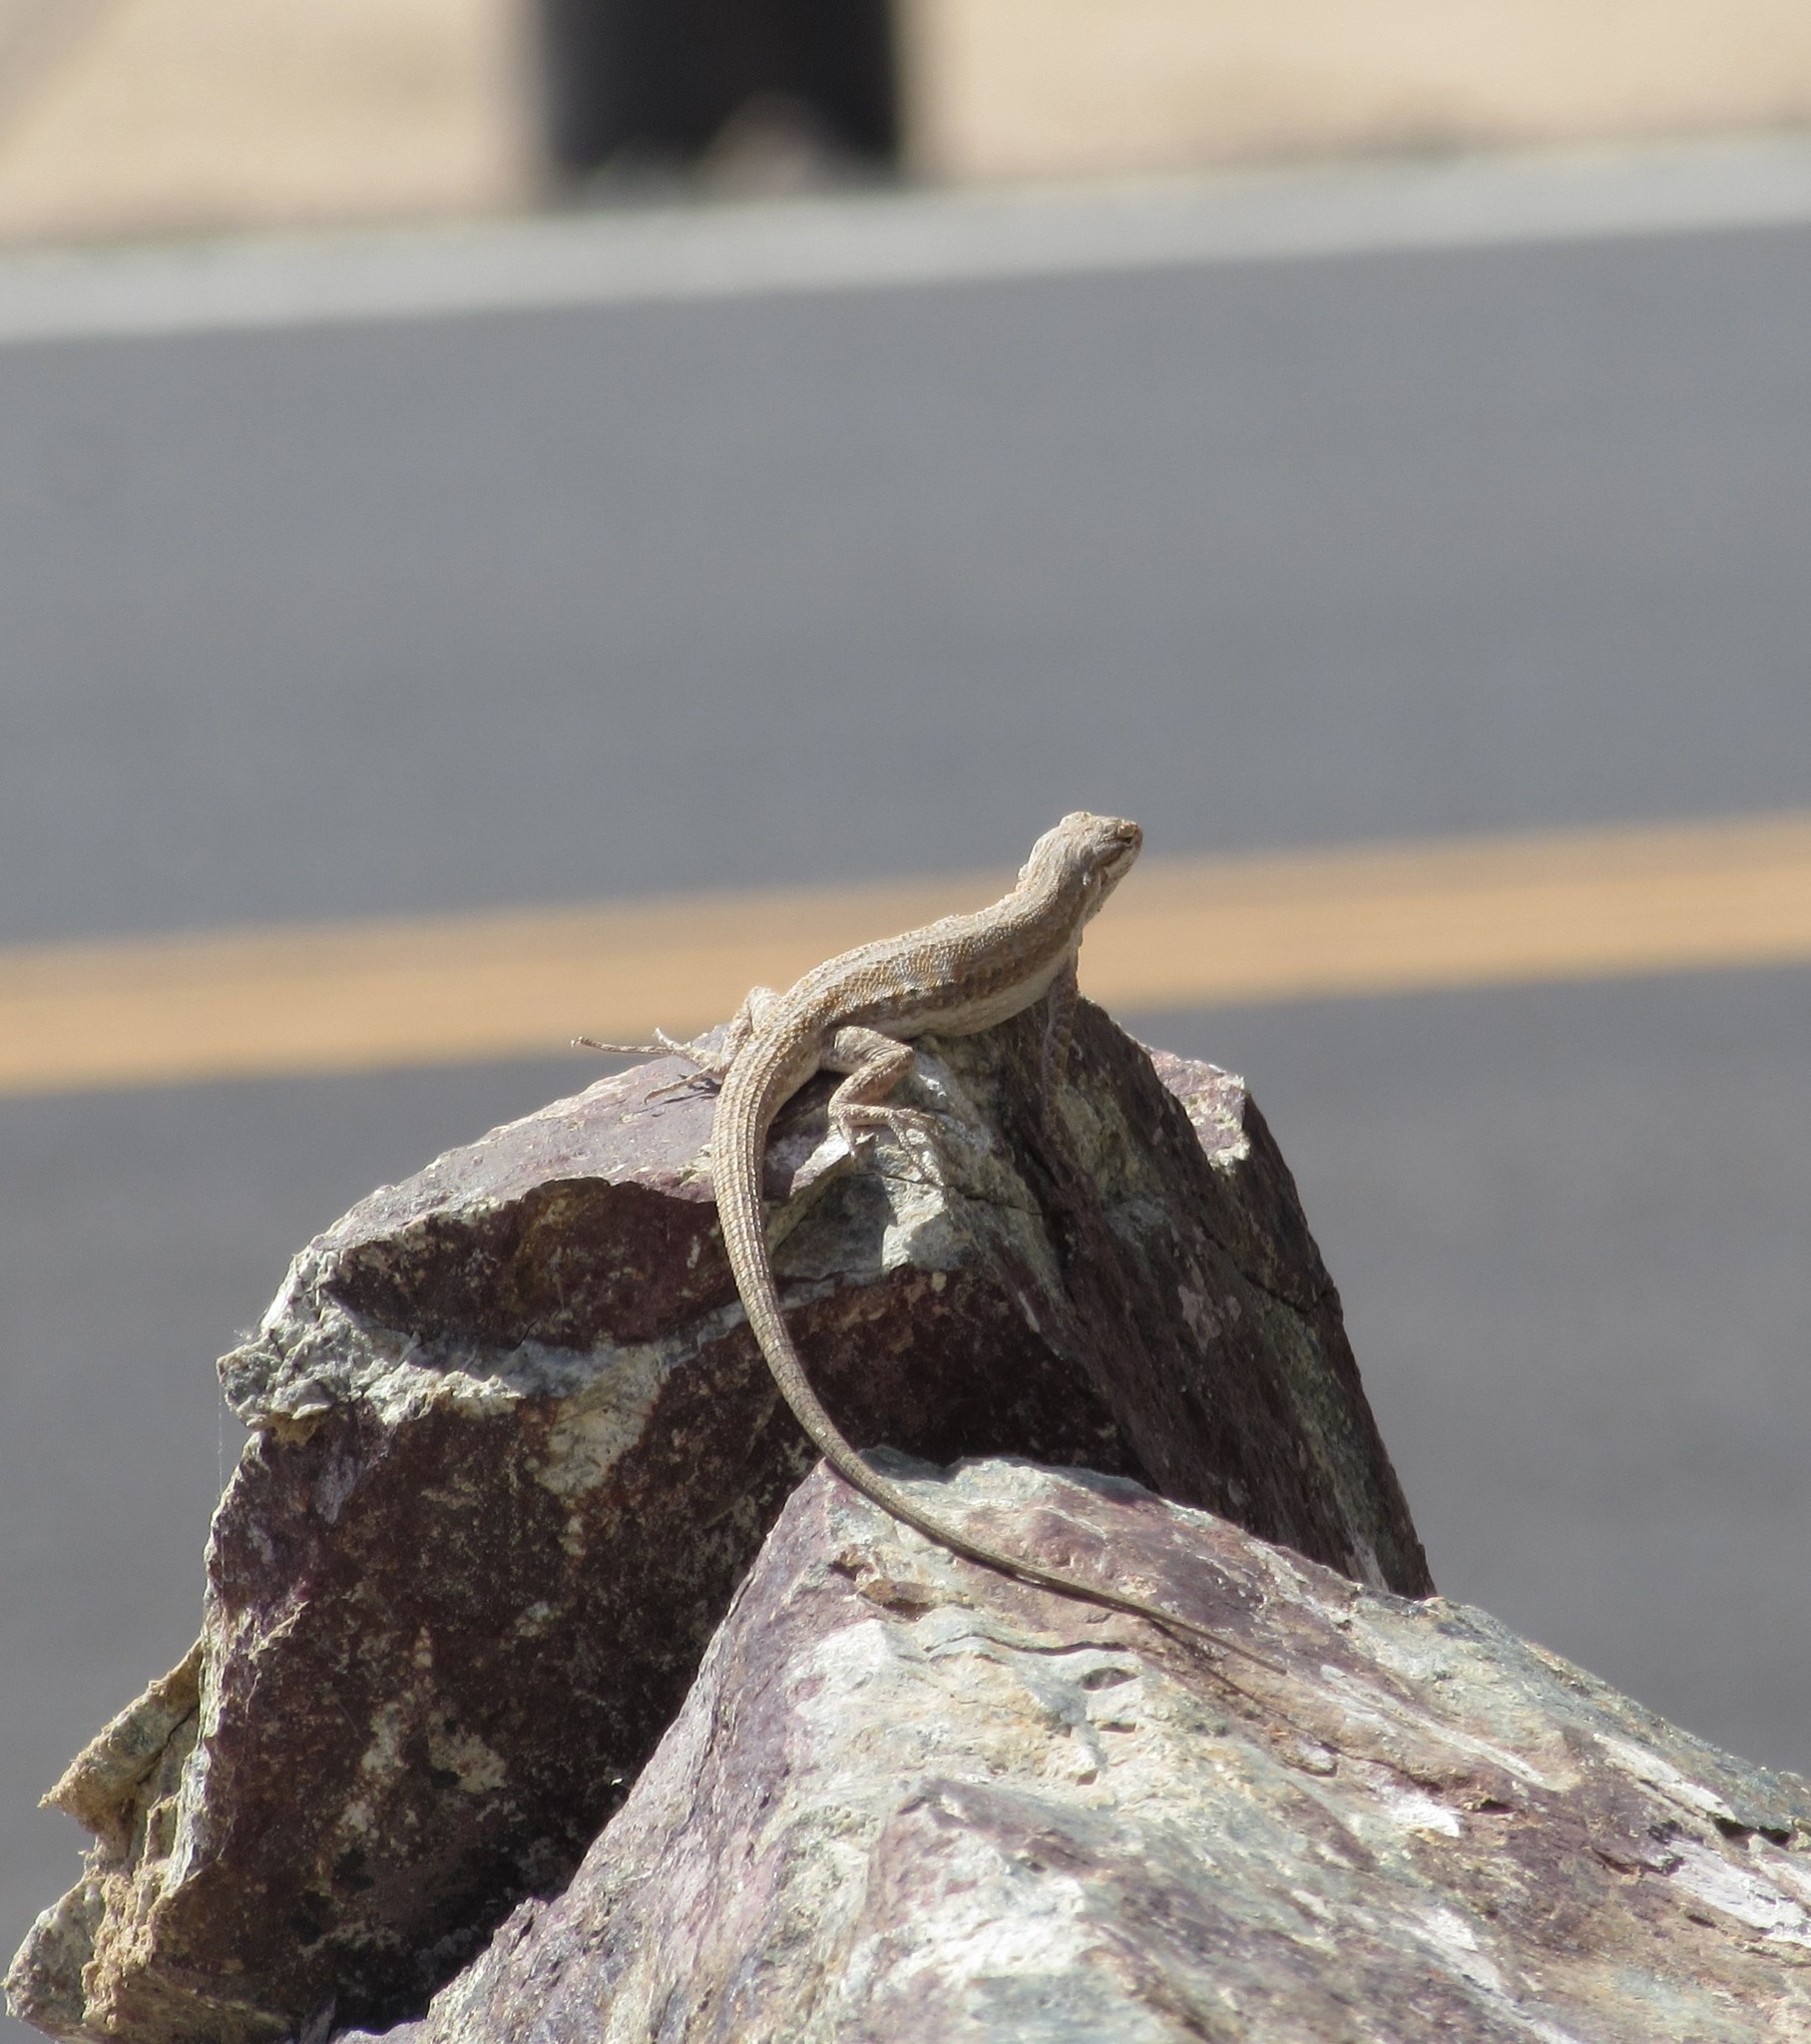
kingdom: Animalia
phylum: Chordata
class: Squamata
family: Phrynosomatidae
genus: Urosaurus
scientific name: Urosaurus graciosus
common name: Long-tailed brush lizard
